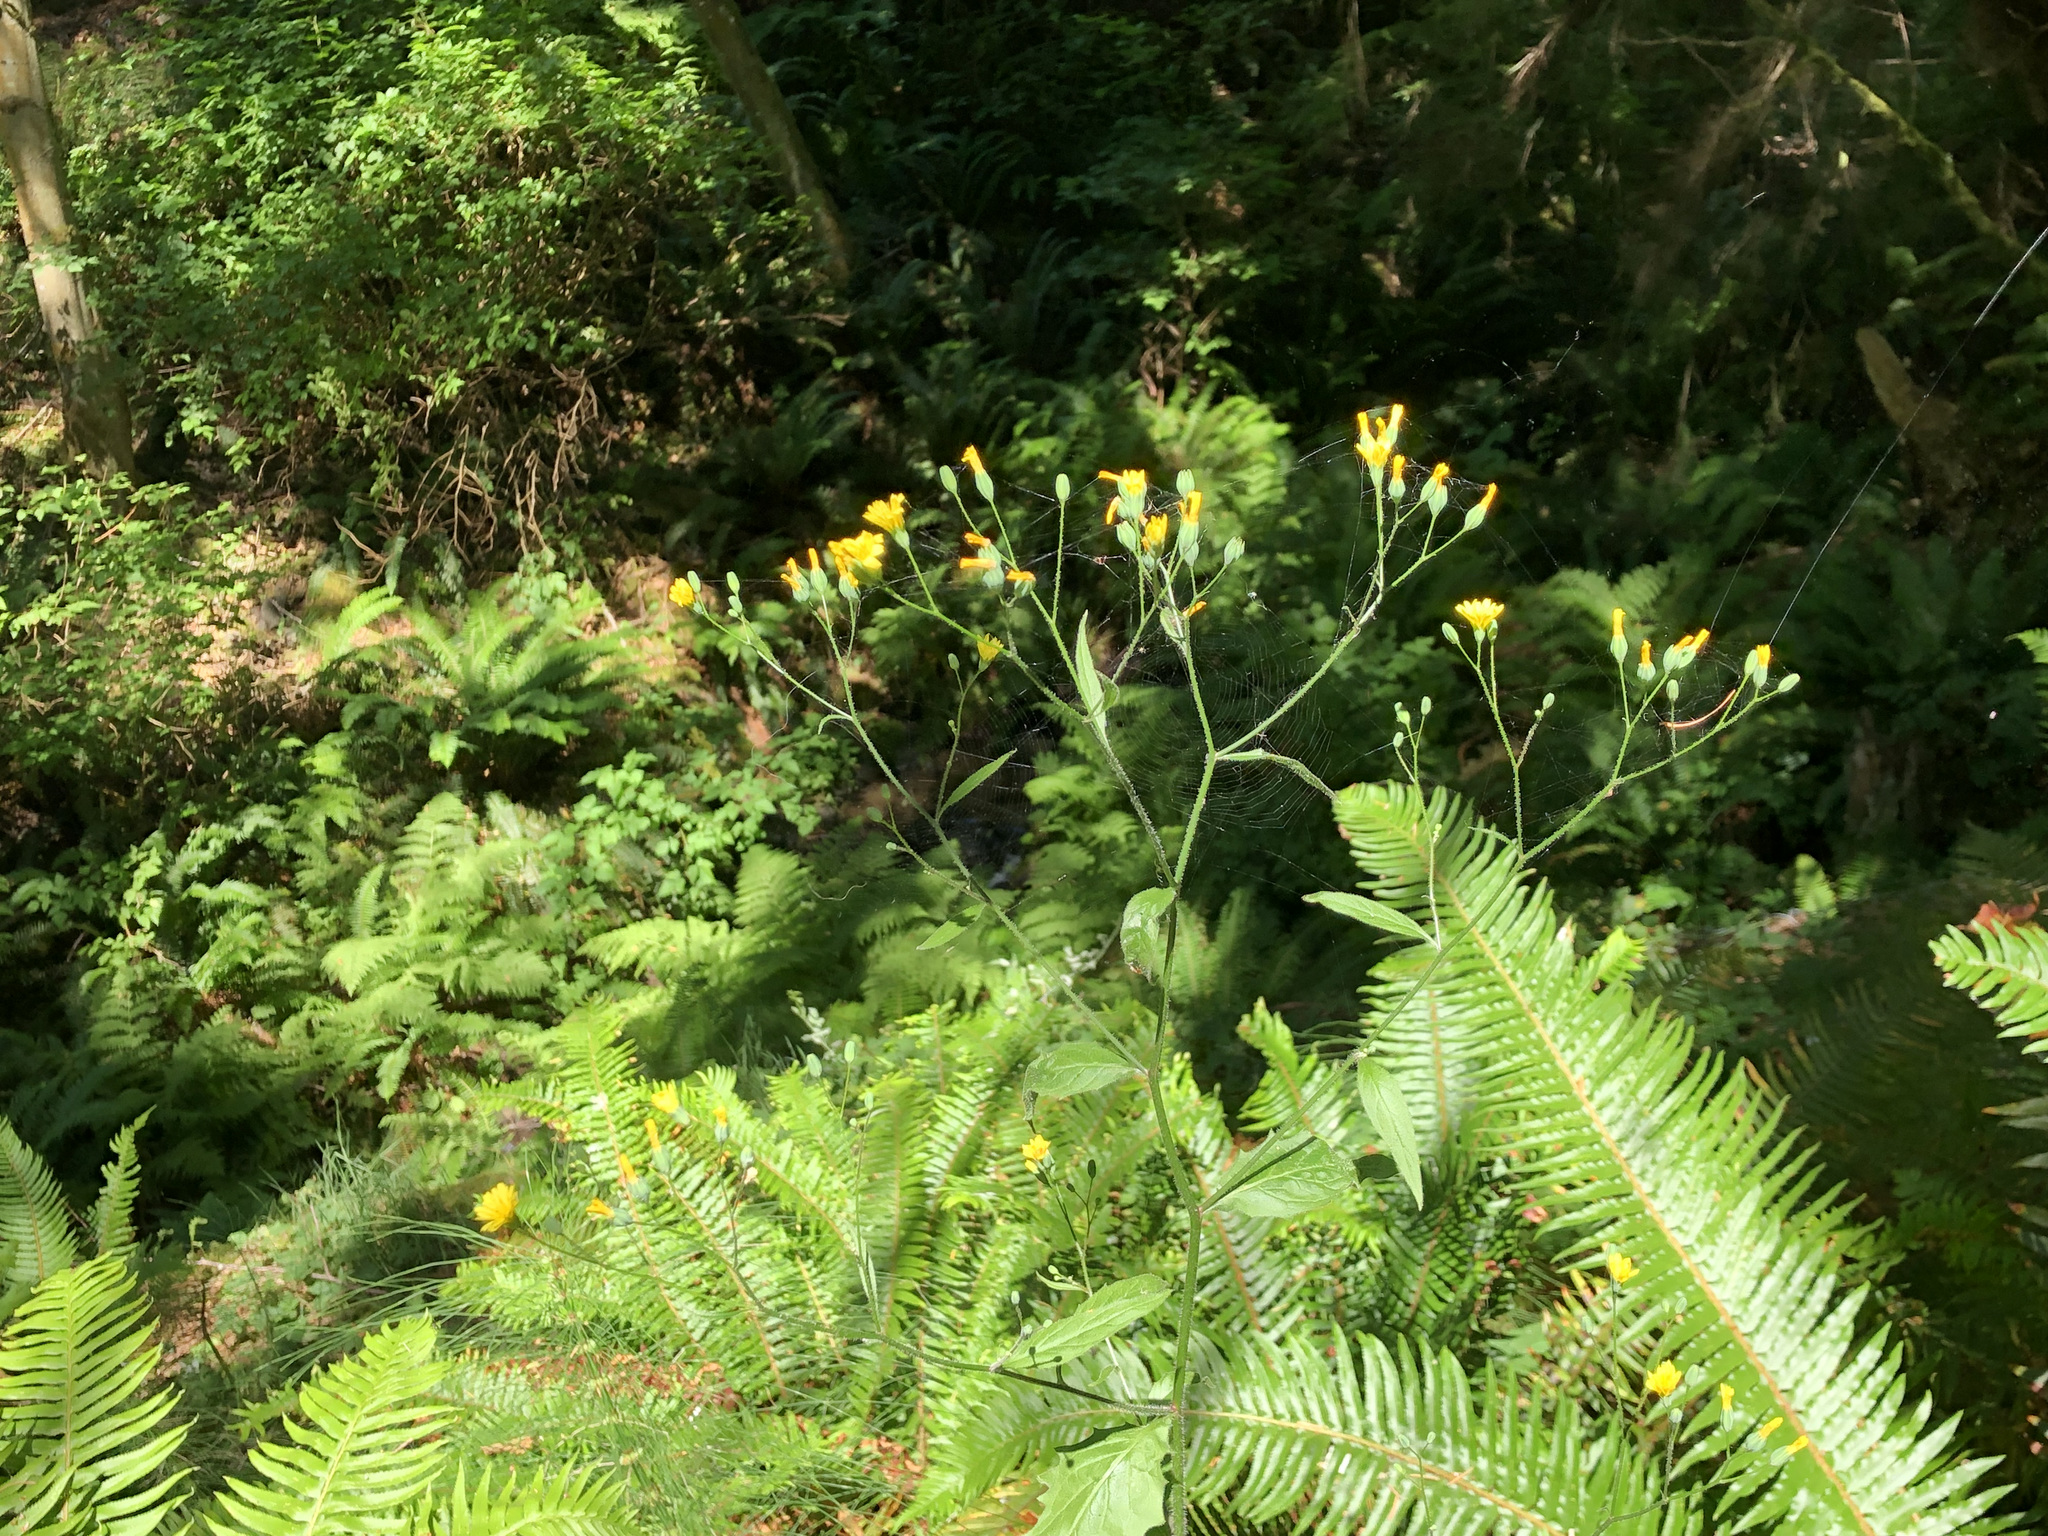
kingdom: Plantae
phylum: Tracheophyta
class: Magnoliopsida
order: Asterales
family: Asteraceae
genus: Lapsana
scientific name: Lapsana communis
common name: Nipplewort
